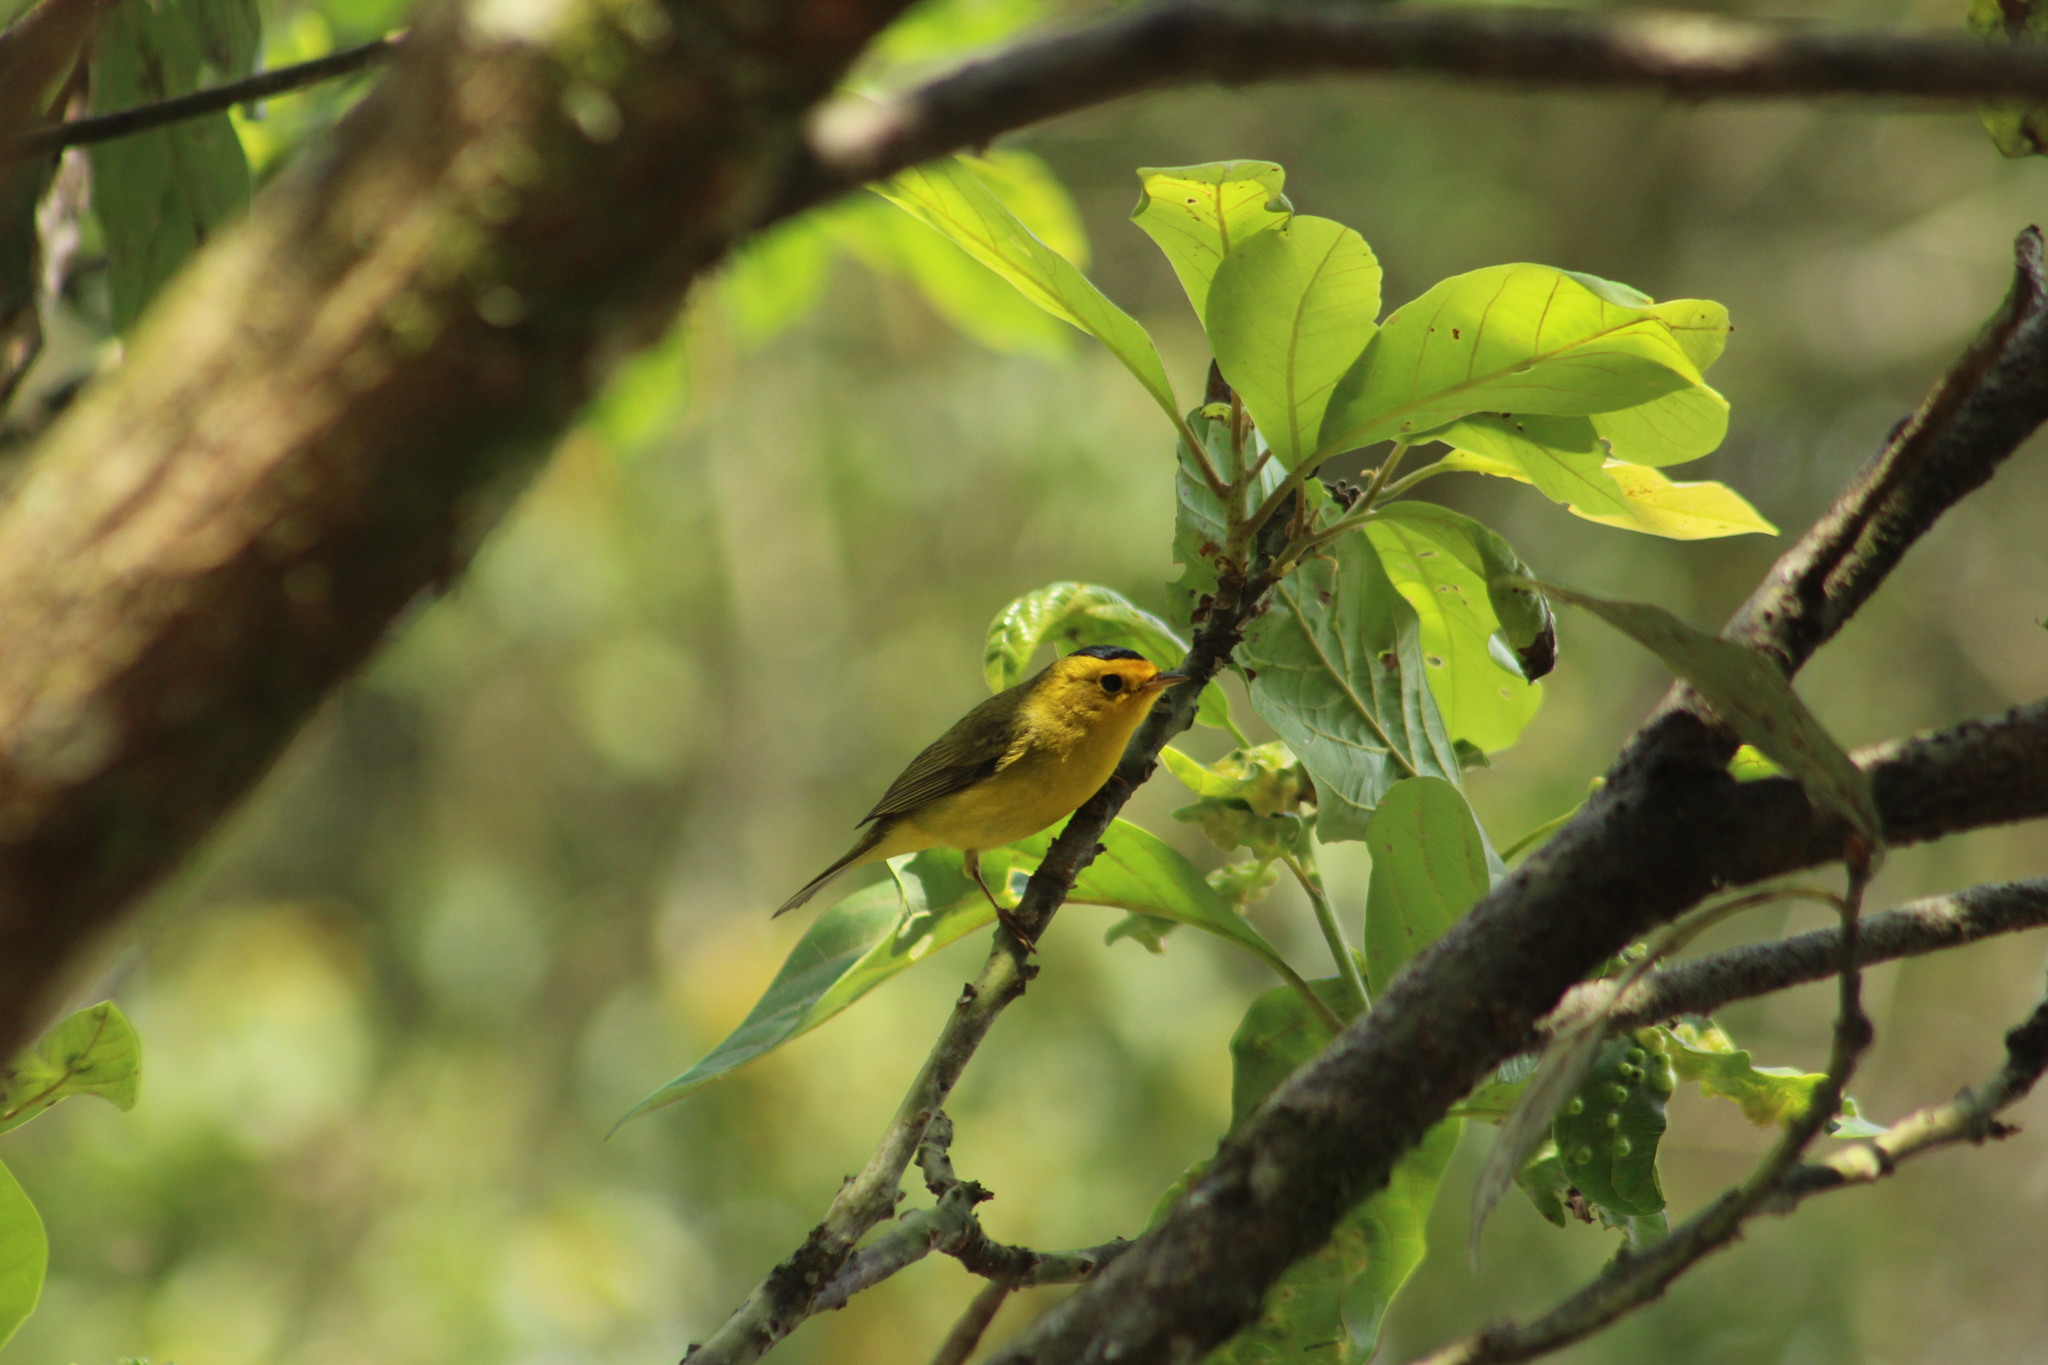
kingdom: Animalia
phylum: Chordata
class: Aves
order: Passeriformes
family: Parulidae
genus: Cardellina
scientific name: Cardellina pusilla
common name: Wilson's warbler
